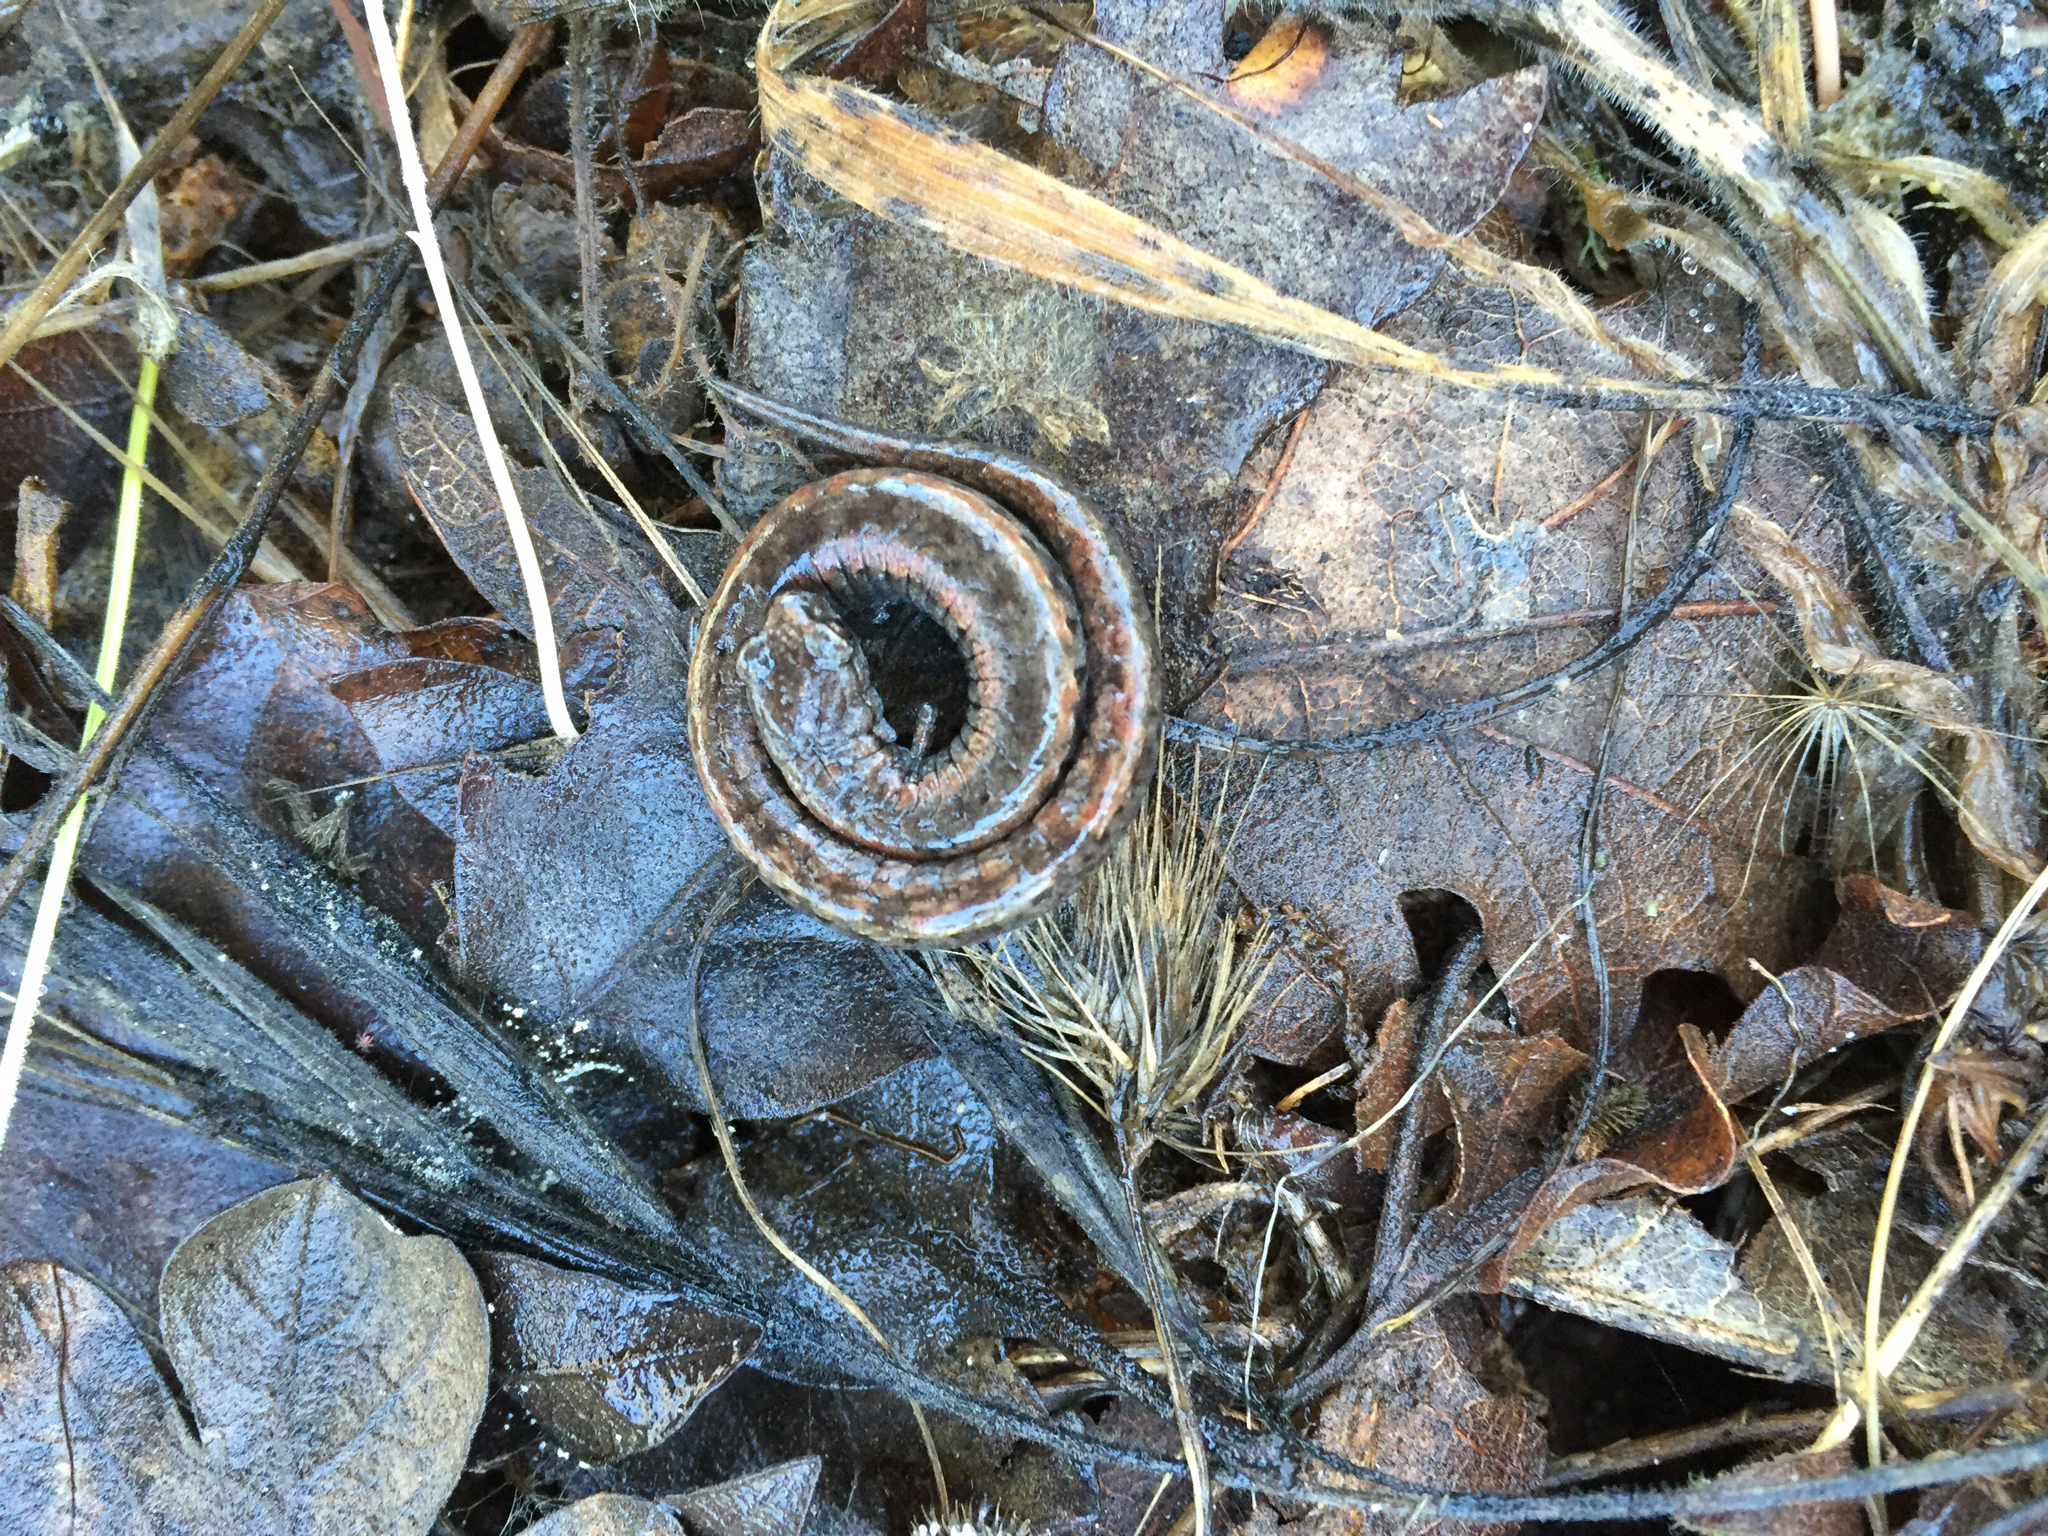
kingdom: Animalia
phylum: Chordata
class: Amphibia
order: Caudata
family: Plethodontidae
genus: Batrachoseps
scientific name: Batrachoseps attenuatus
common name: California slender salamander
